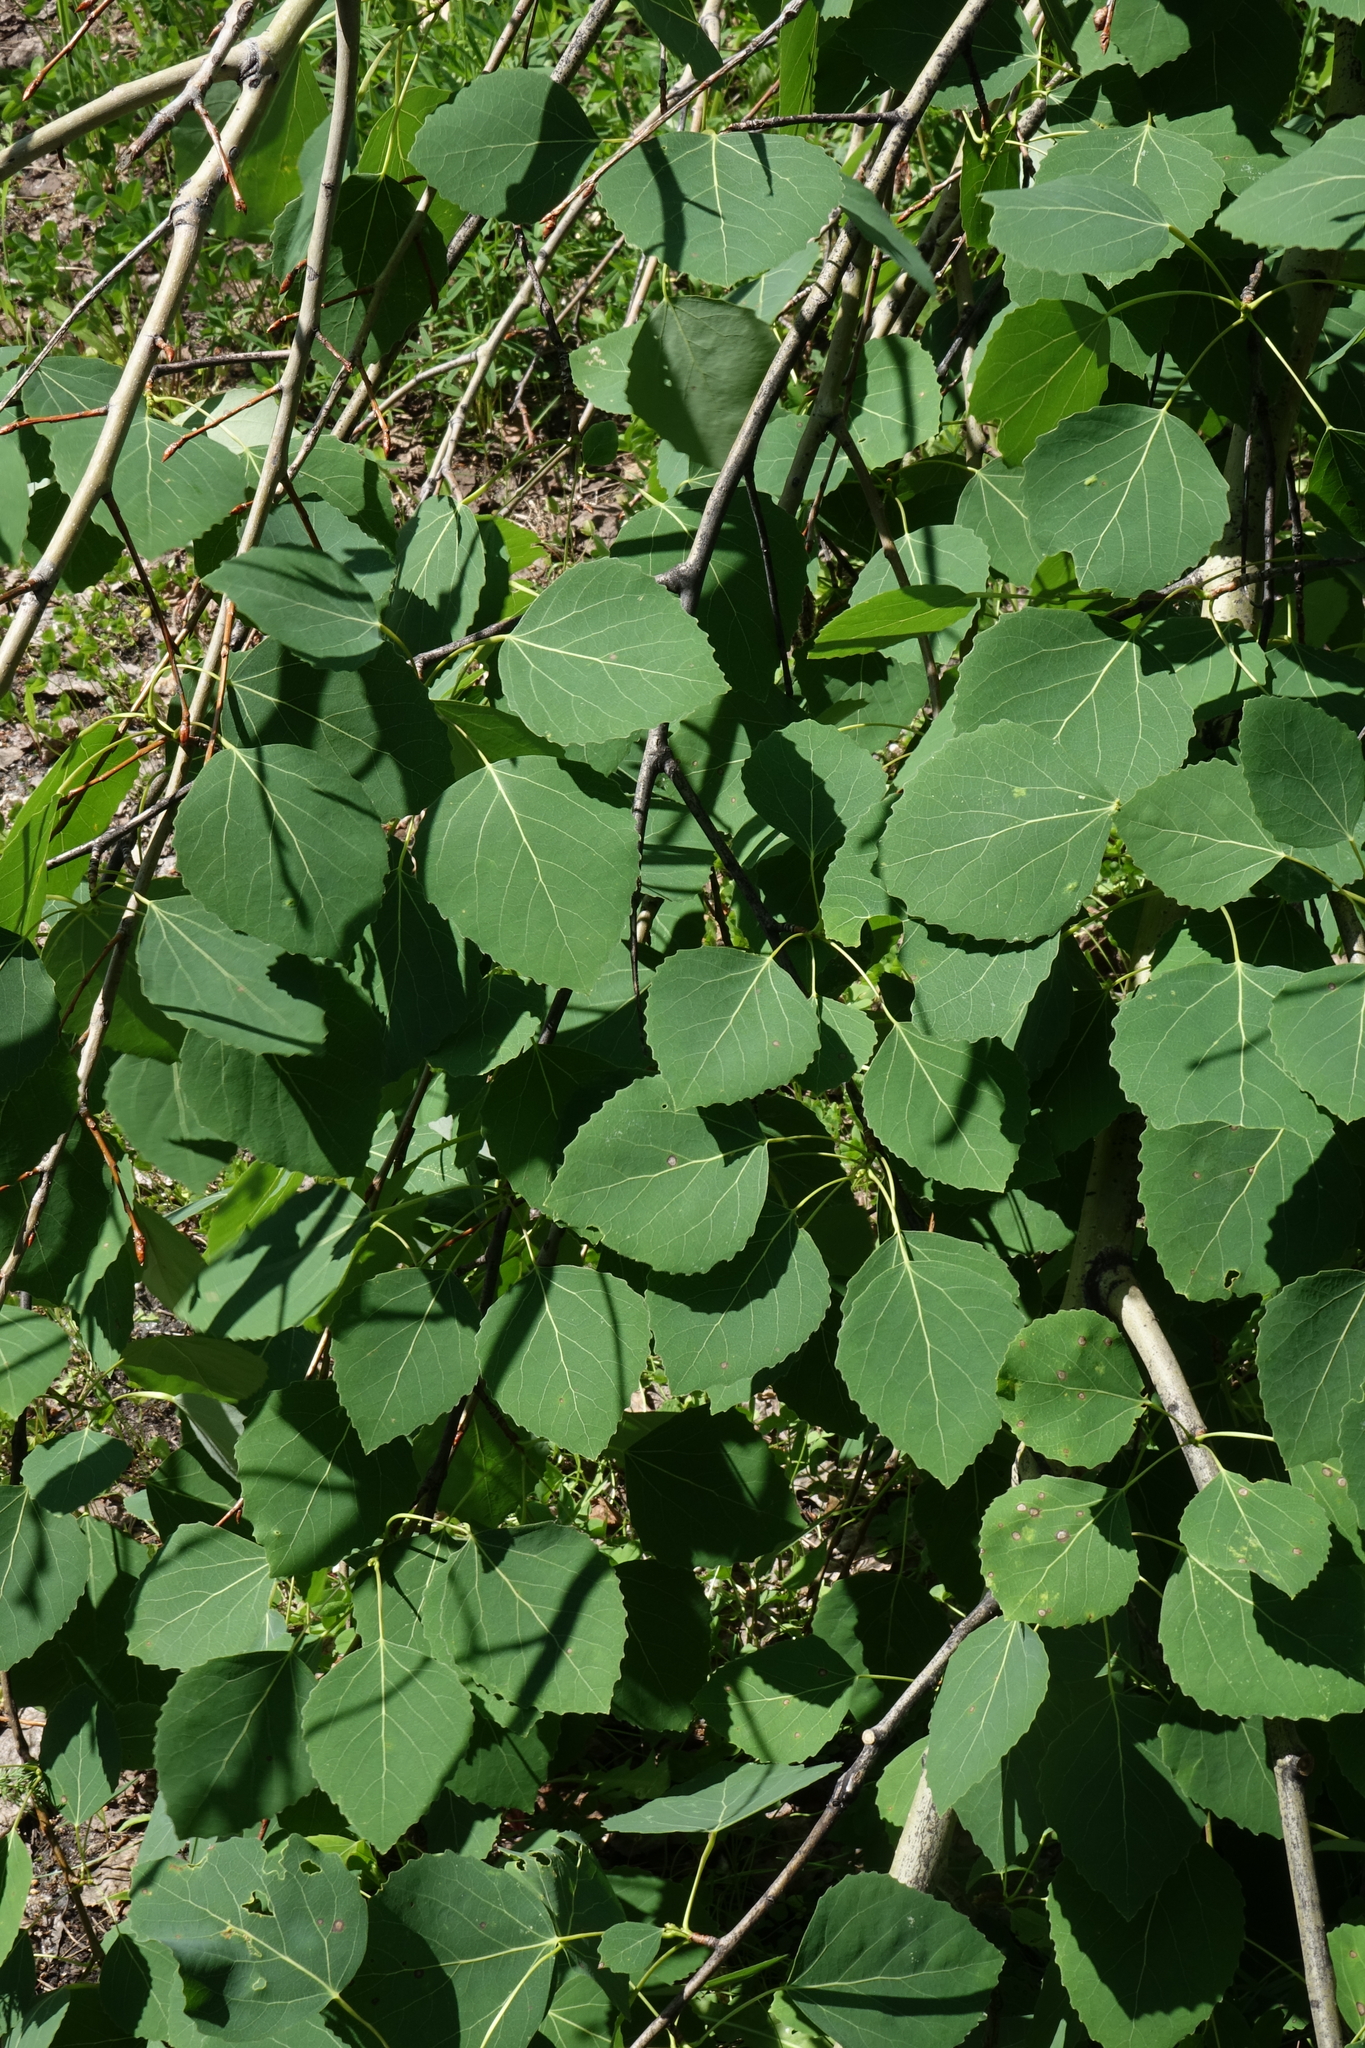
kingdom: Plantae
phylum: Tracheophyta
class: Magnoliopsida
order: Malpighiales
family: Salicaceae
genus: Populus
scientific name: Populus tremula
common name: European aspen
